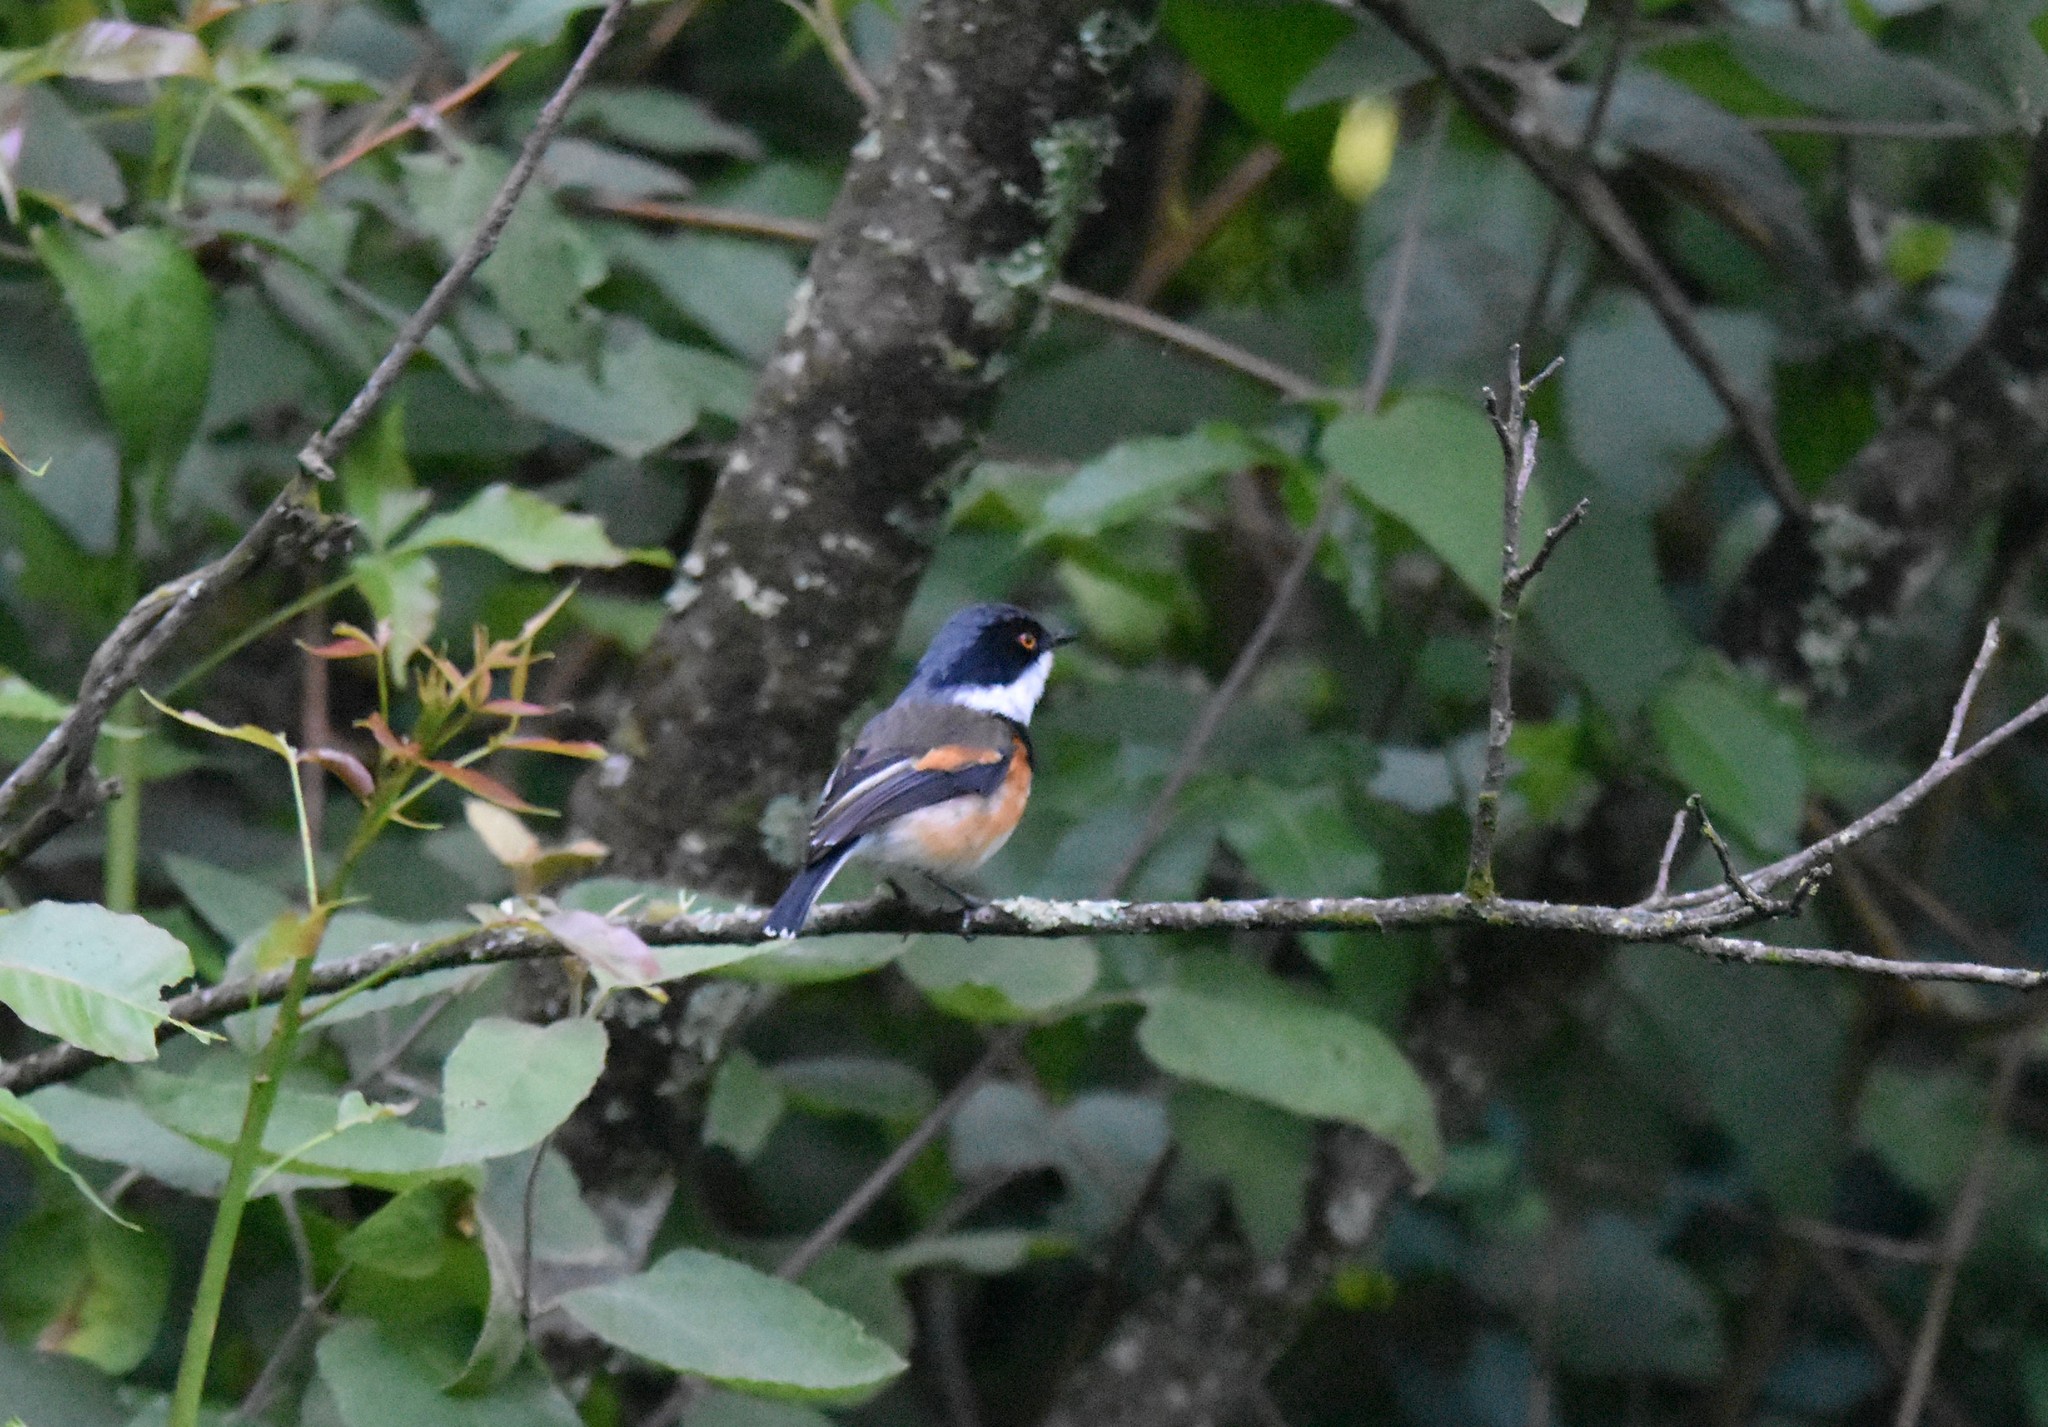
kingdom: Animalia
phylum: Chordata
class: Aves
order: Passeriformes
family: Platysteiridae
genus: Batis
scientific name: Batis capensis
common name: Cape batis
